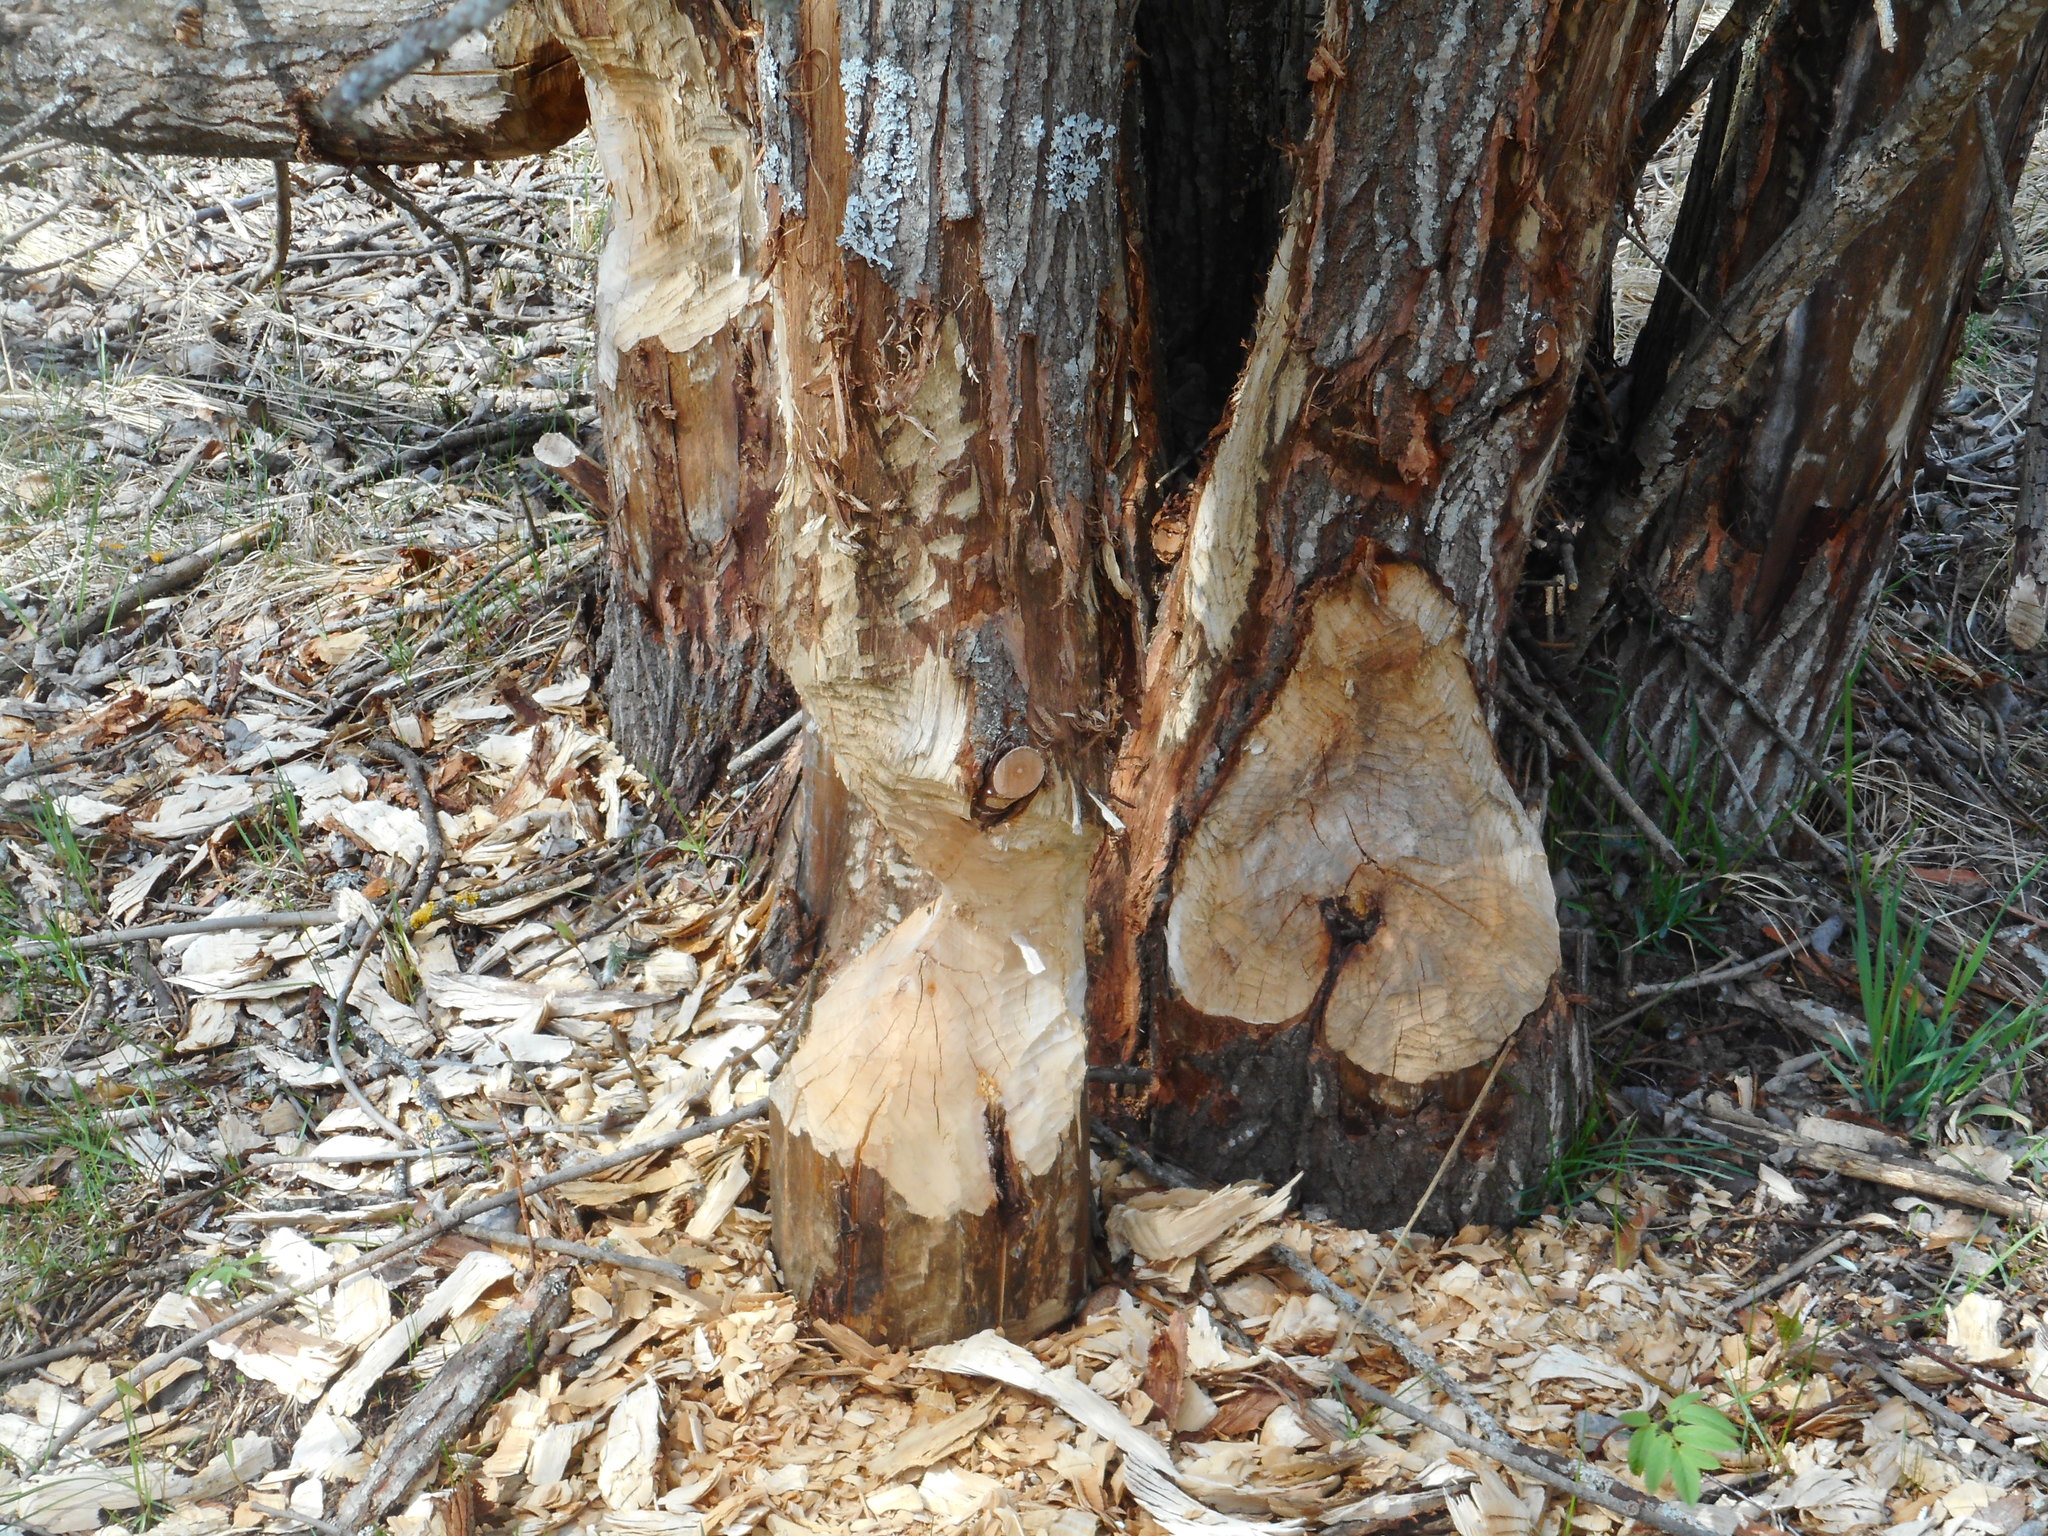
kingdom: Animalia
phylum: Chordata
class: Mammalia
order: Rodentia
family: Castoridae
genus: Castor
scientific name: Castor fiber
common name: Eurasian beaver
